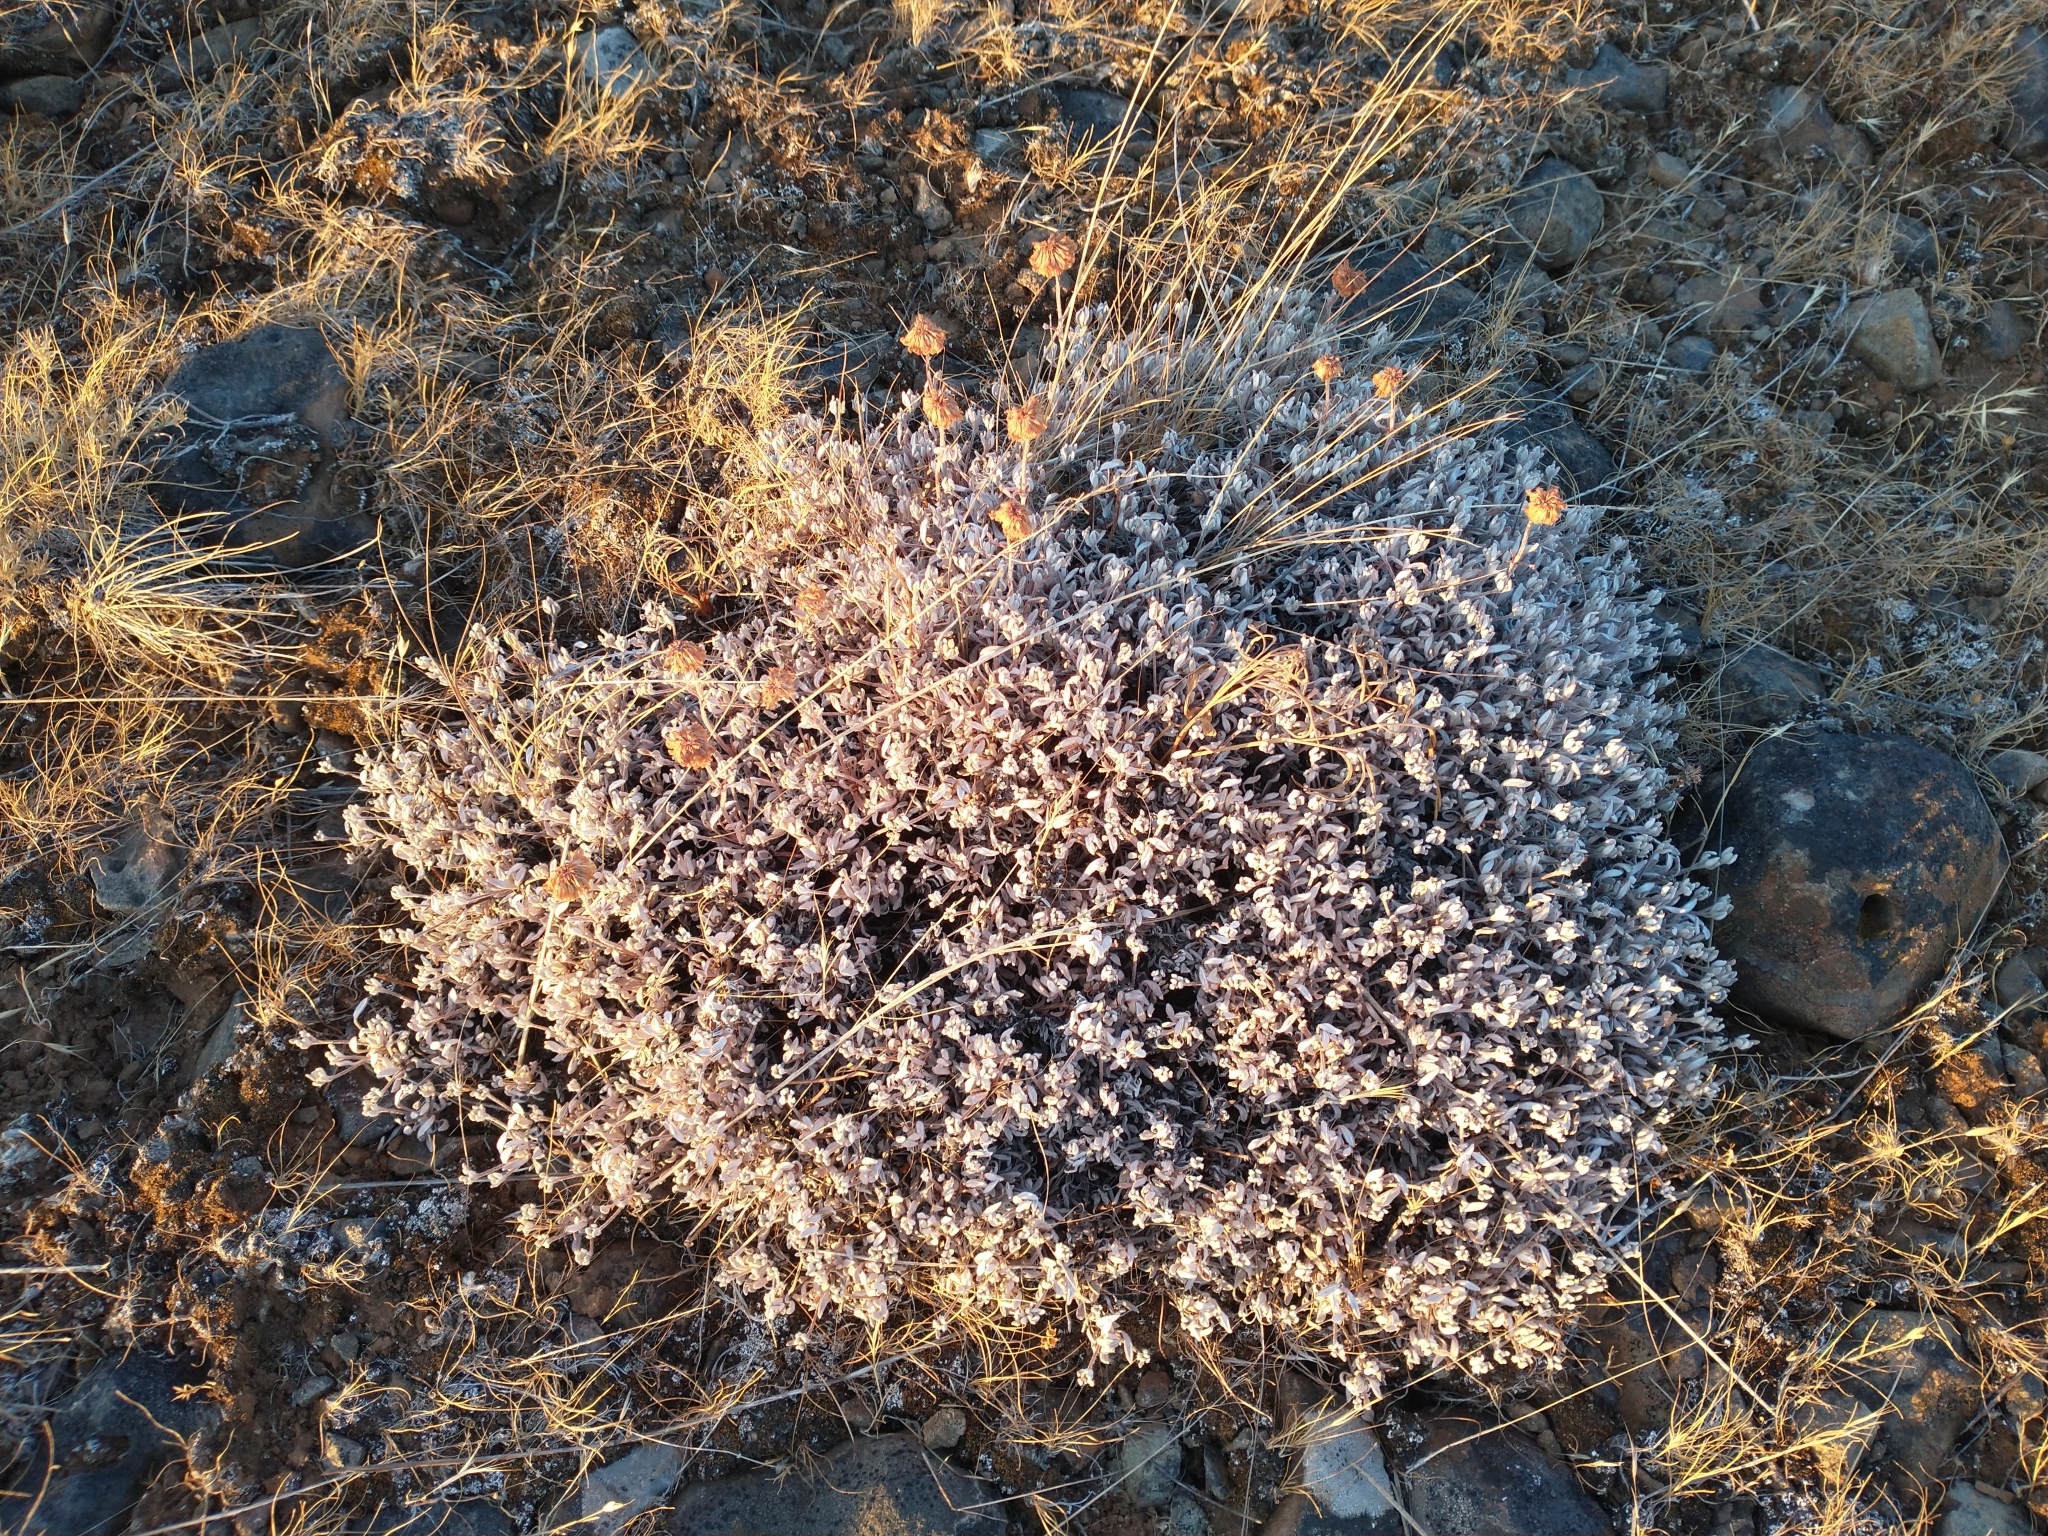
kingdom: Plantae
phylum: Tracheophyta
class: Magnoliopsida
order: Caryophyllales
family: Polygonaceae
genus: Eriogonum
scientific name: Eriogonum sphaerocephalum
